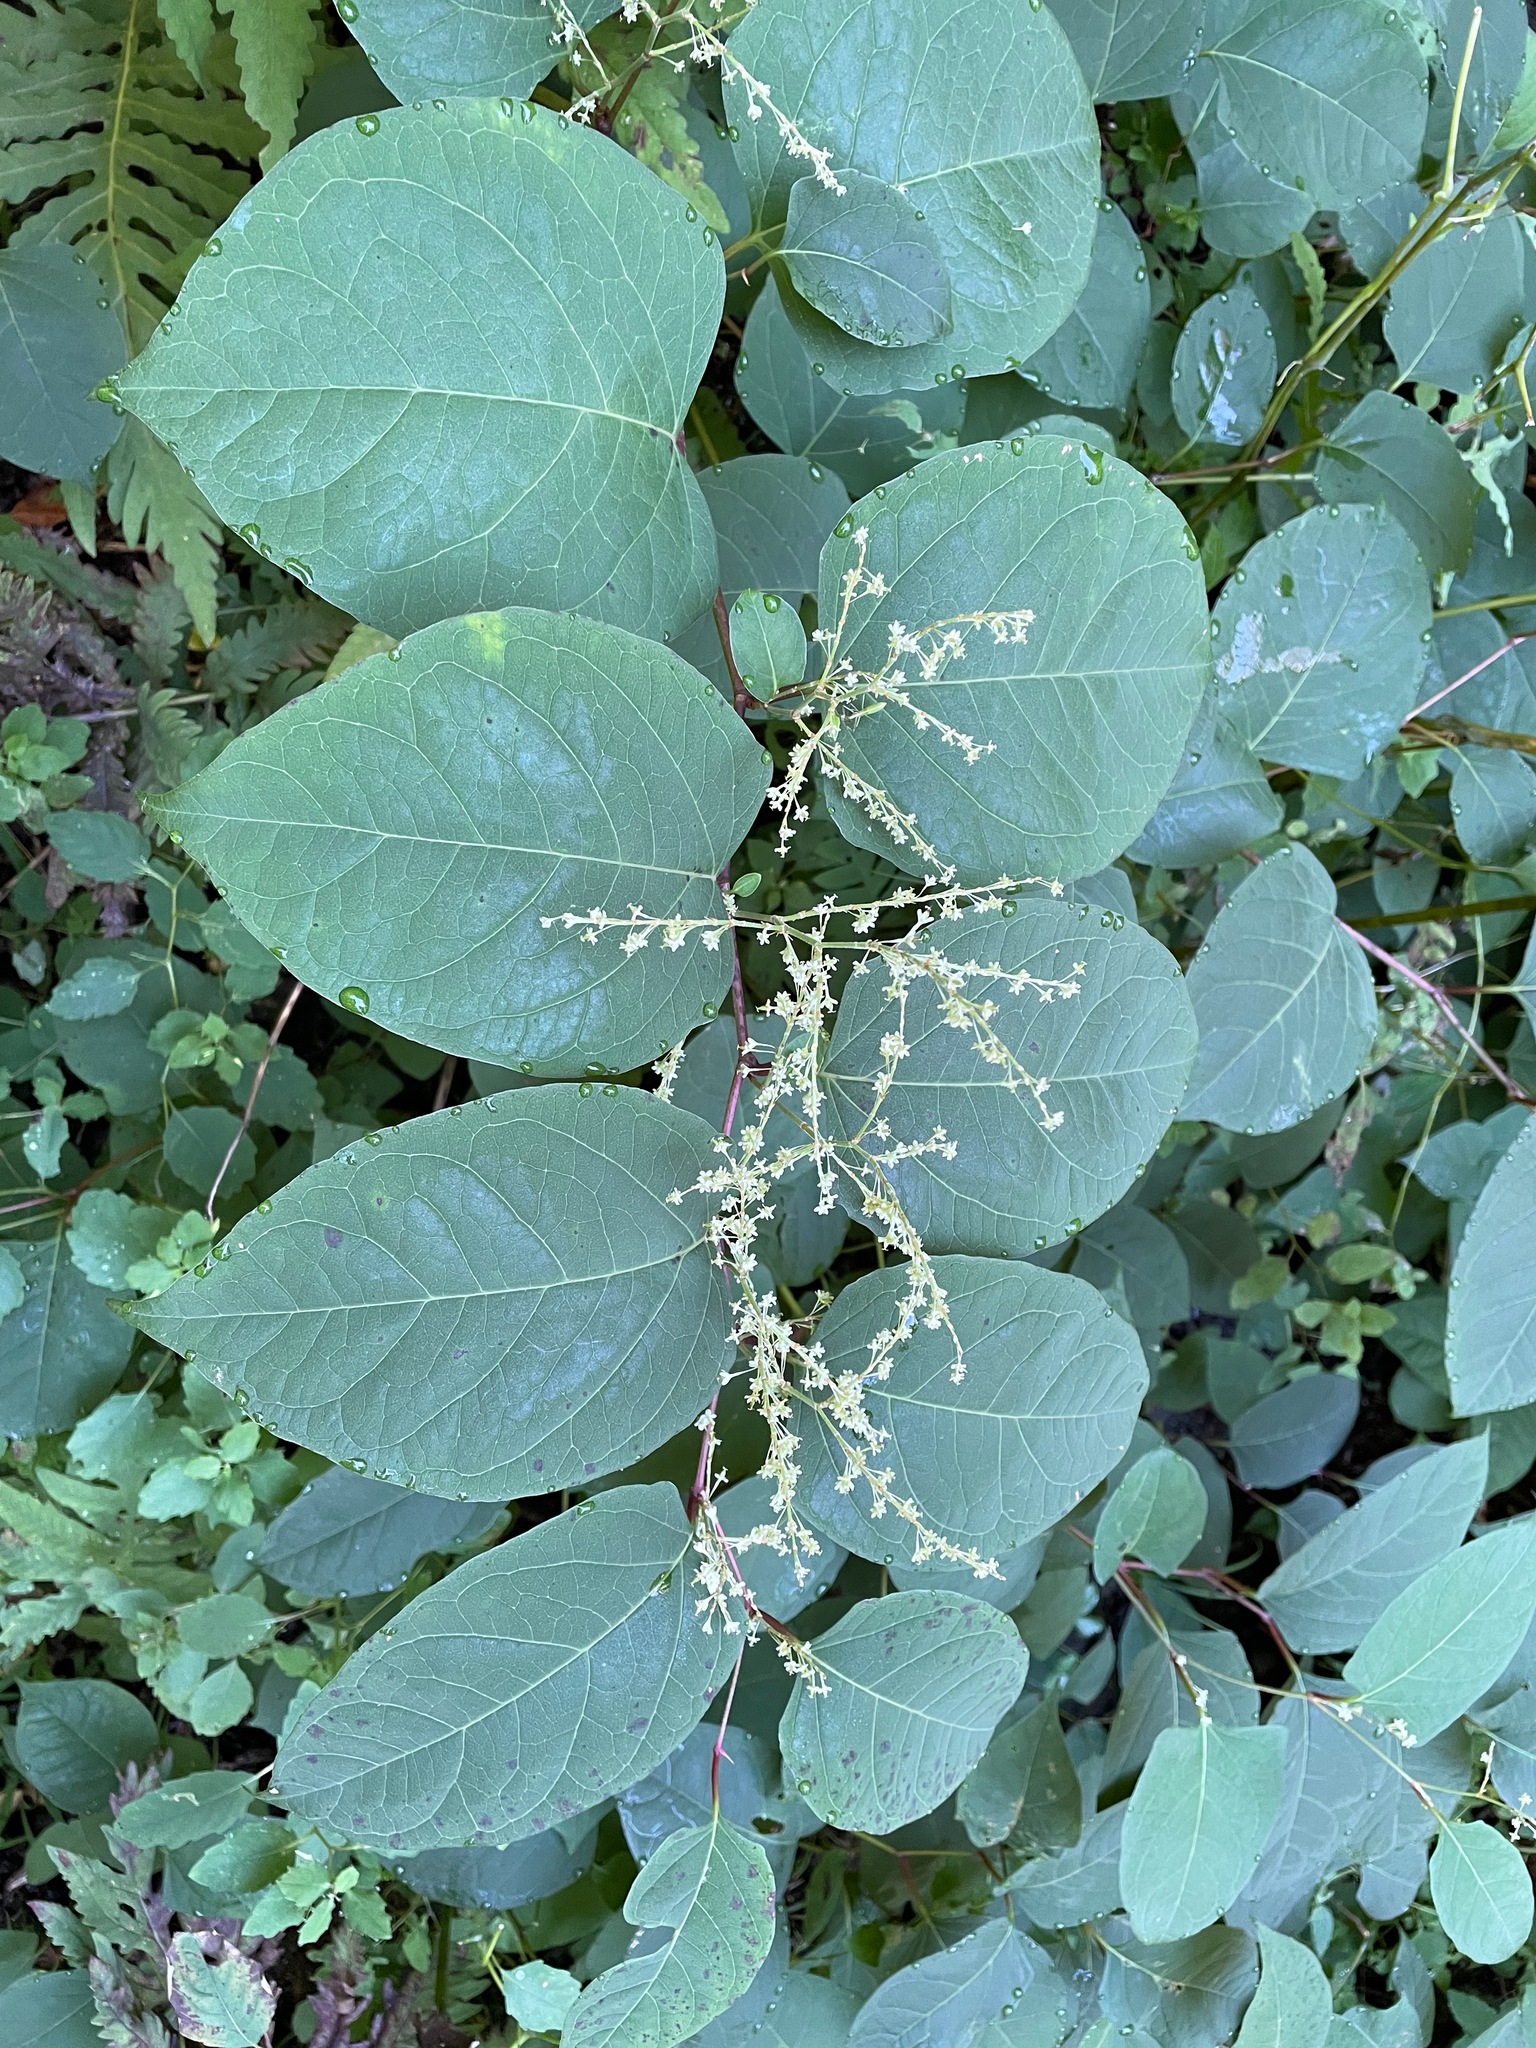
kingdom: Plantae
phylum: Tracheophyta
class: Magnoliopsida
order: Caryophyllales
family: Polygonaceae
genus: Reynoutria
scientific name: Reynoutria japonica
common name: Japanese knotweed
